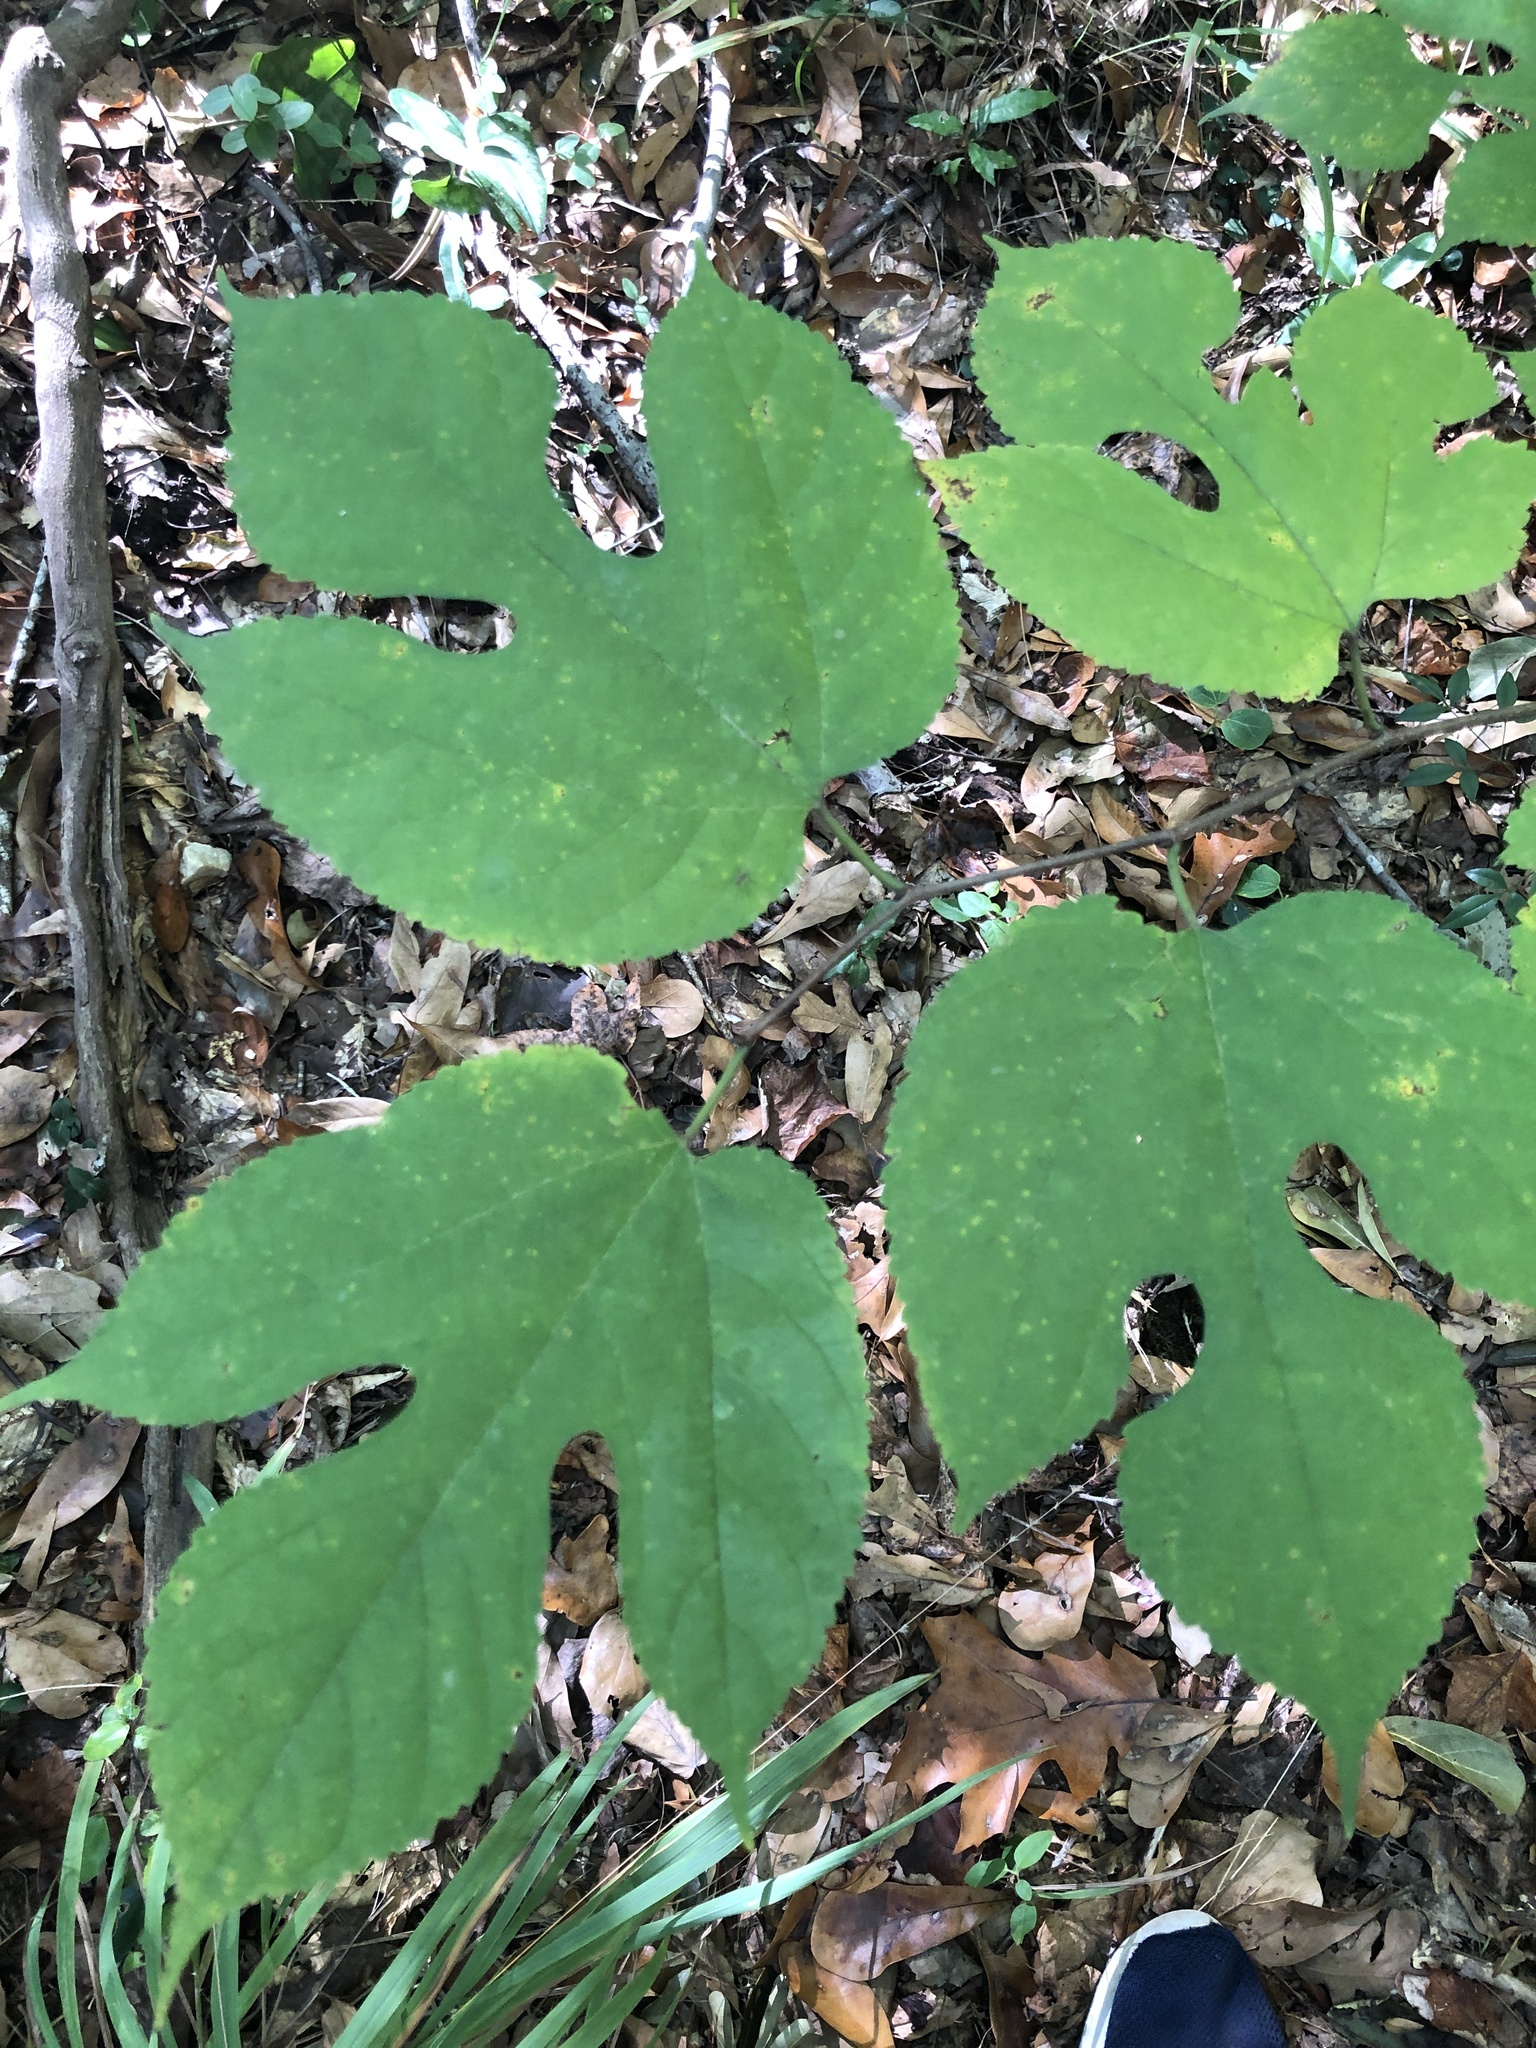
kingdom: Plantae
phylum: Tracheophyta
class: Magnoliopsida
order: Rosales
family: Moraceae
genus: Morus
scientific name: Morus rubra
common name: Red mulberry
